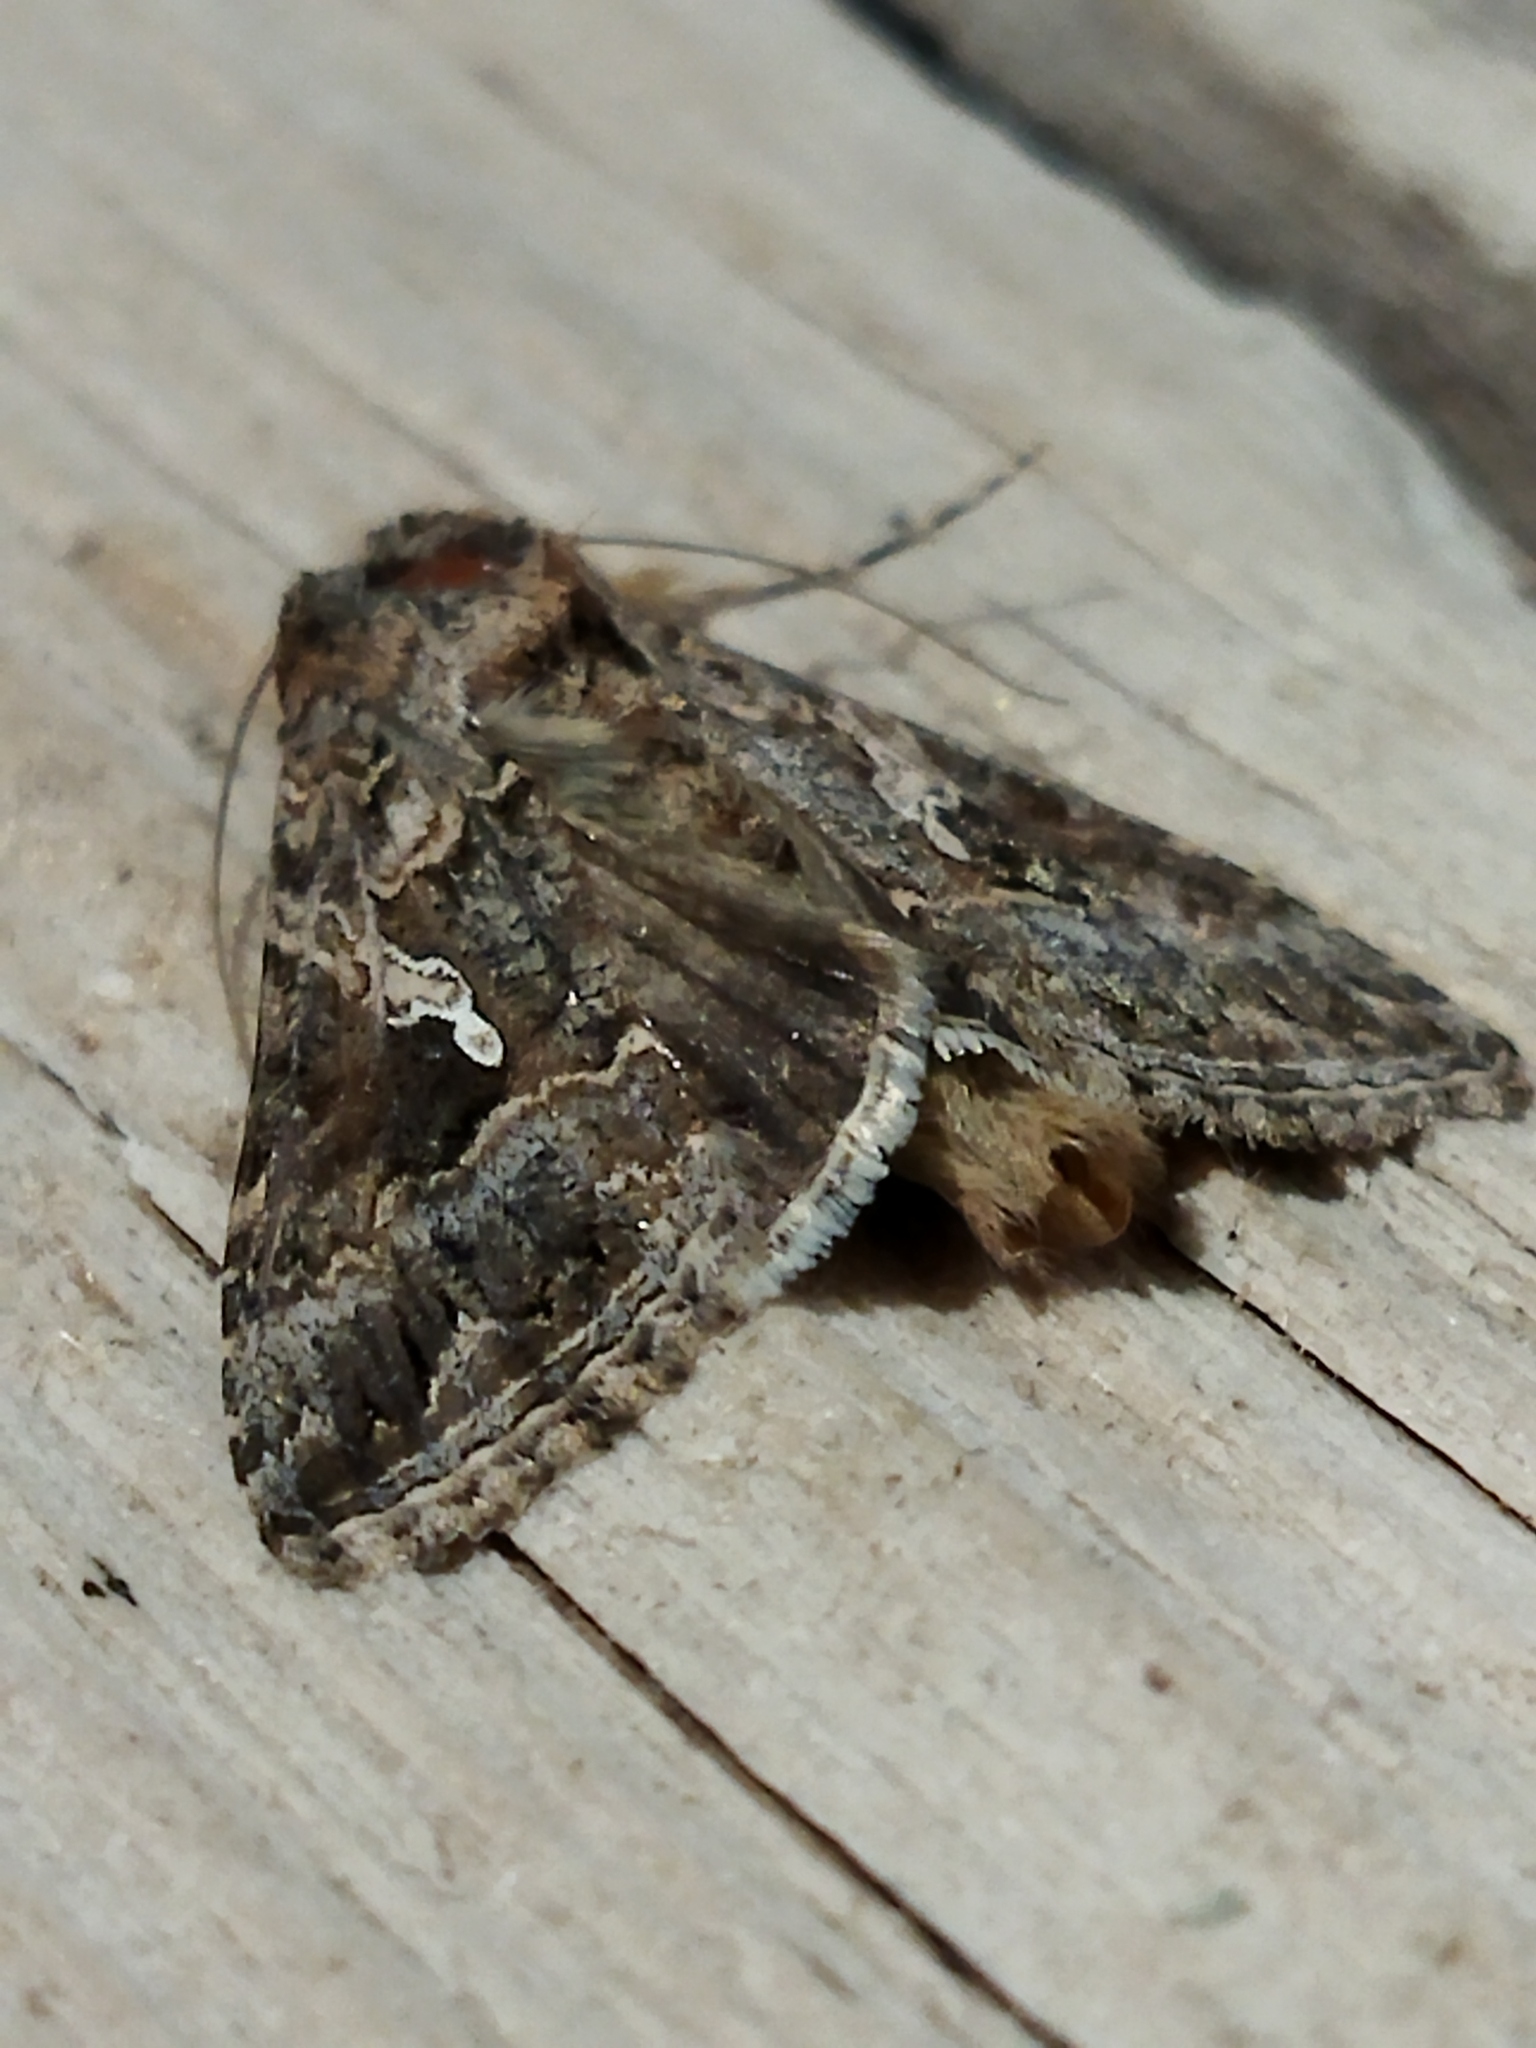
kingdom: Animalia
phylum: Arthropoda
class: Insecta
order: Lepidoptera
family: Noctuidae
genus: Trichoplusia
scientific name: Trichoplusia ni
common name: Ni moth
